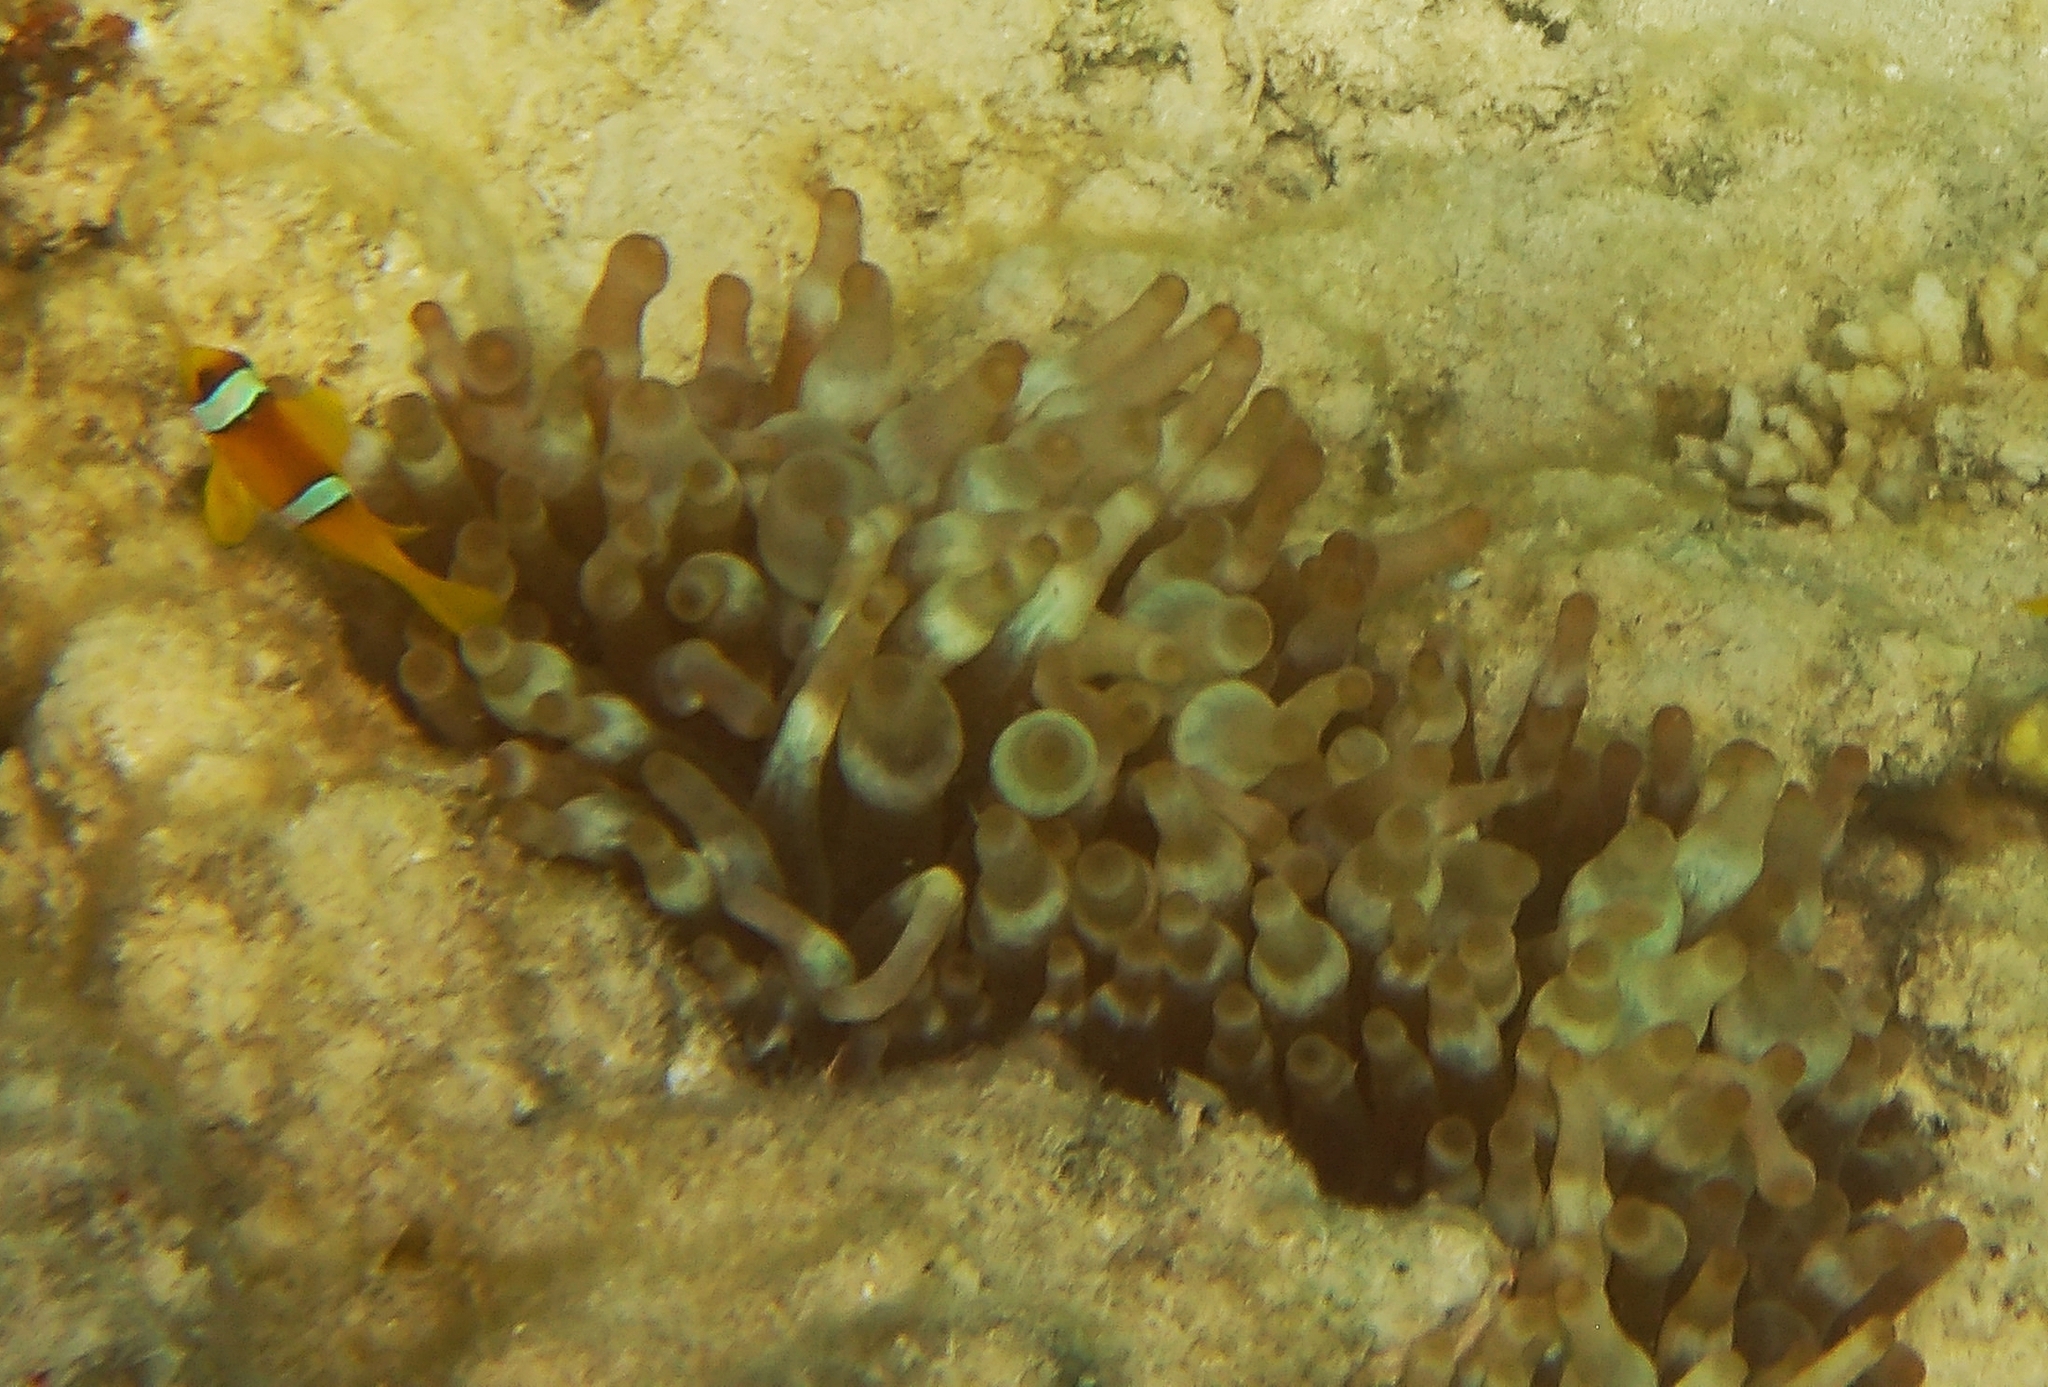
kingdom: Animalia
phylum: Cnidaria
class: Anthozoa
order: Actiniaria
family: Actiniidae
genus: Entacmaea
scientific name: Entacmaea quadricolor
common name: Bulb tentacle sea anemone
